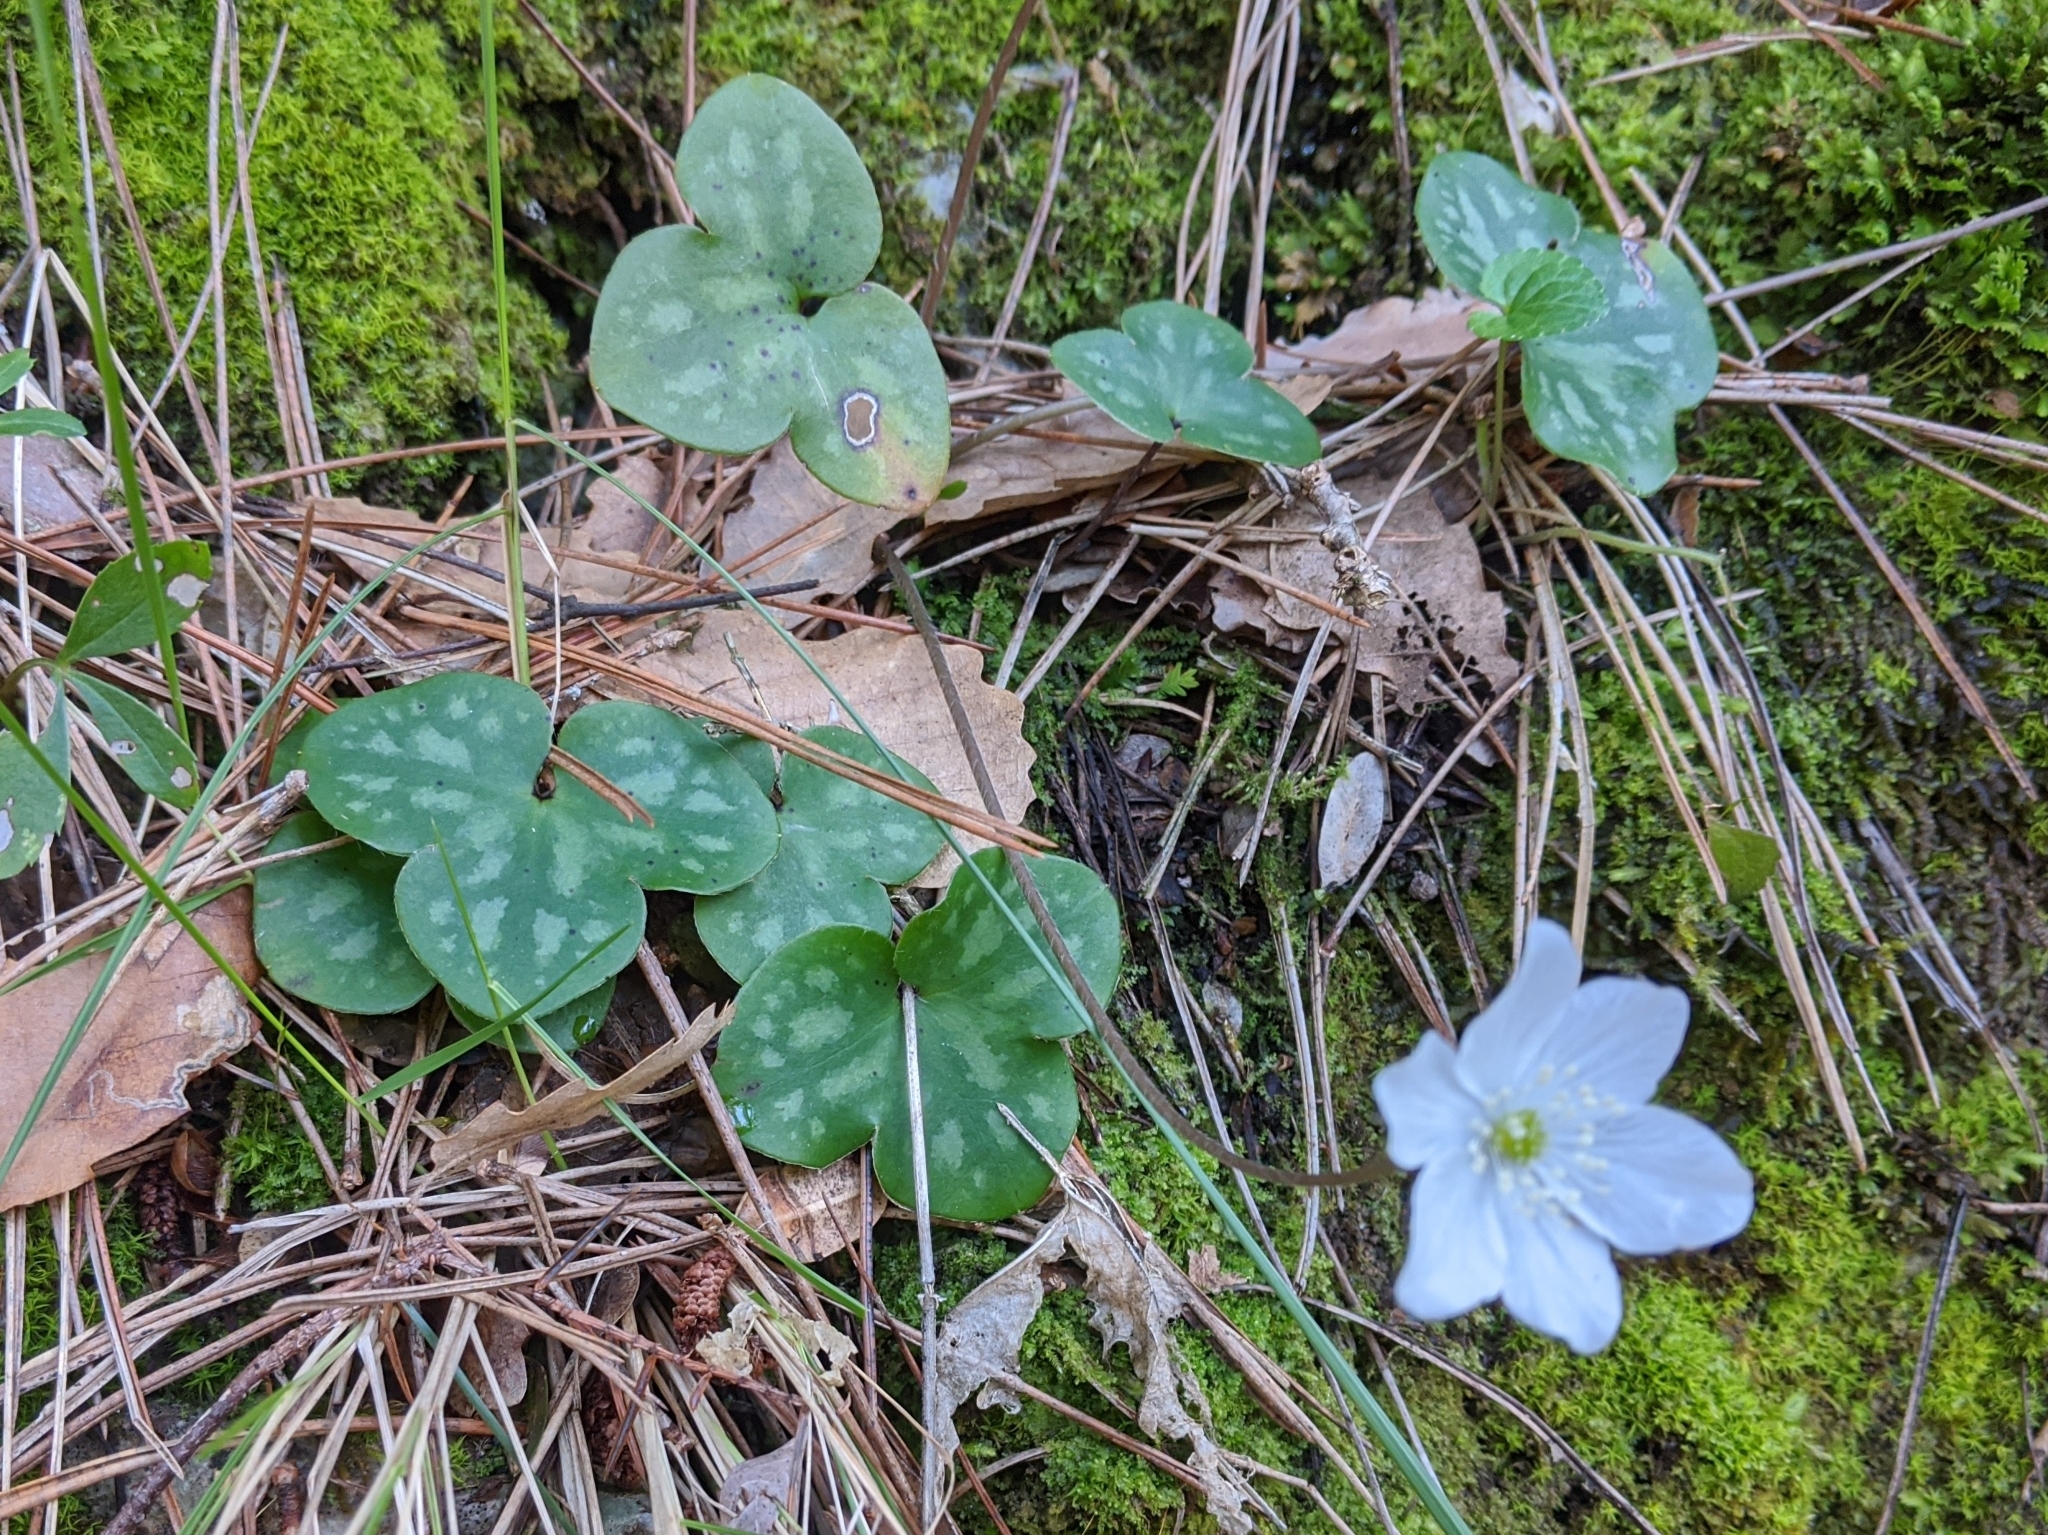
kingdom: Plantae
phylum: Tracheophyta
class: Magnoliopsida
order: Ranunculales
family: Ranunculaceae
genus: Hepatica
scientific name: Hepatica nobilis
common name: Liverleaf
